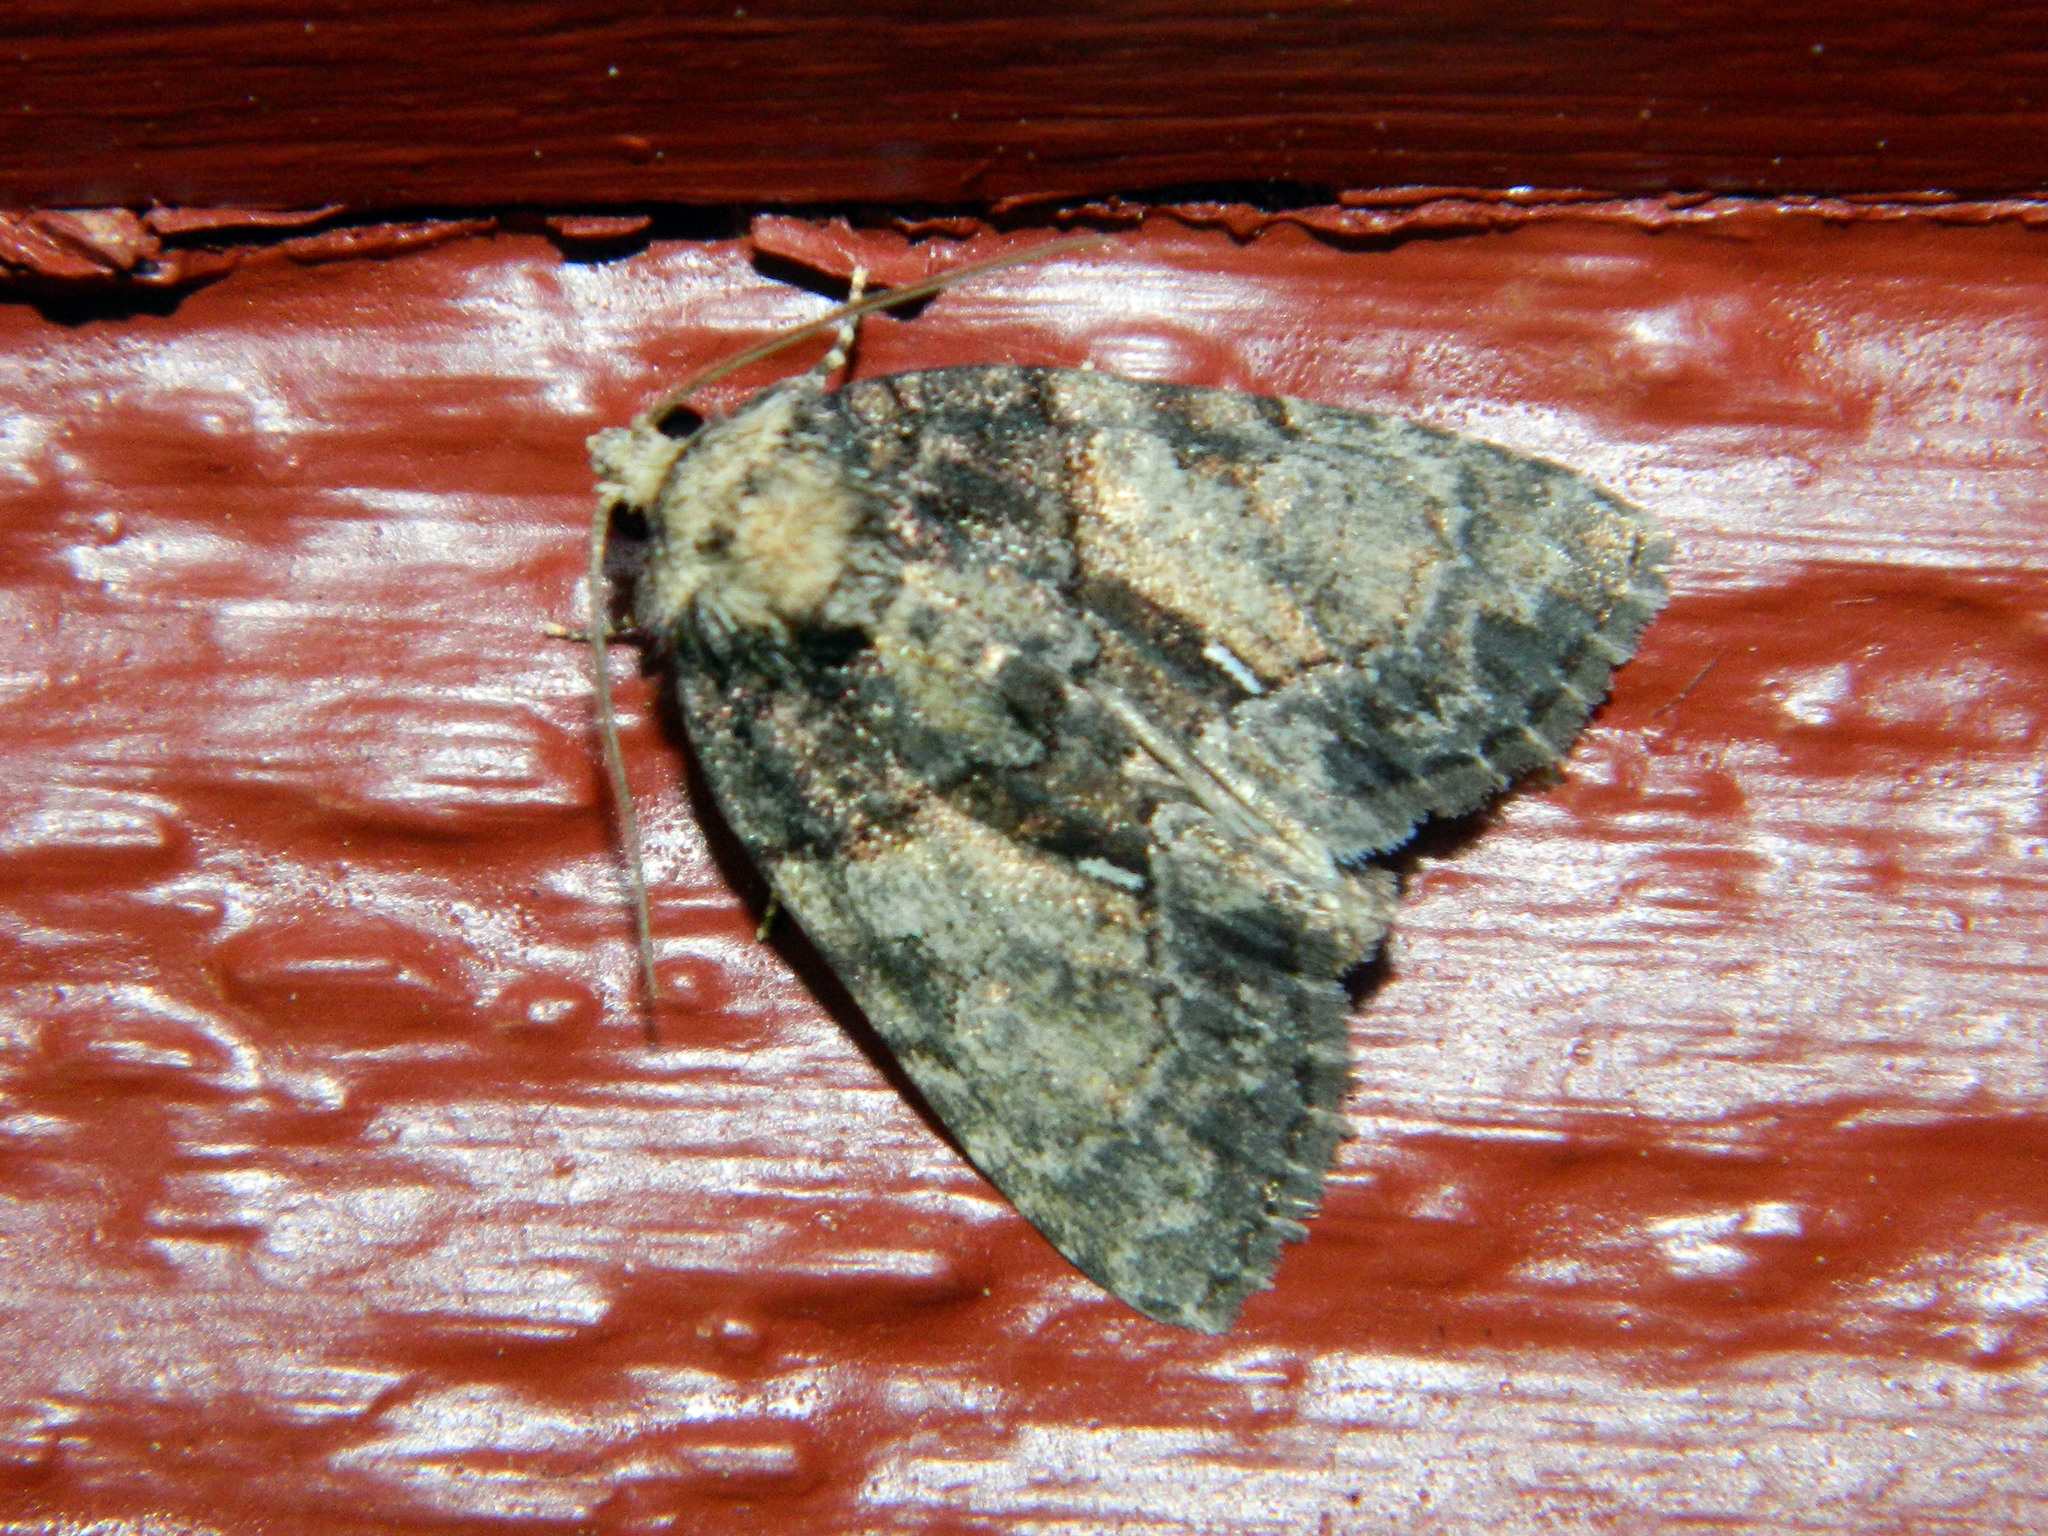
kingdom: Animalia
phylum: Arthropoda
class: Insecta
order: Lepidoptera
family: Noctuidae
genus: Chytonix
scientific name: Chytonix palliatricula
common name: Cloaked marvel
